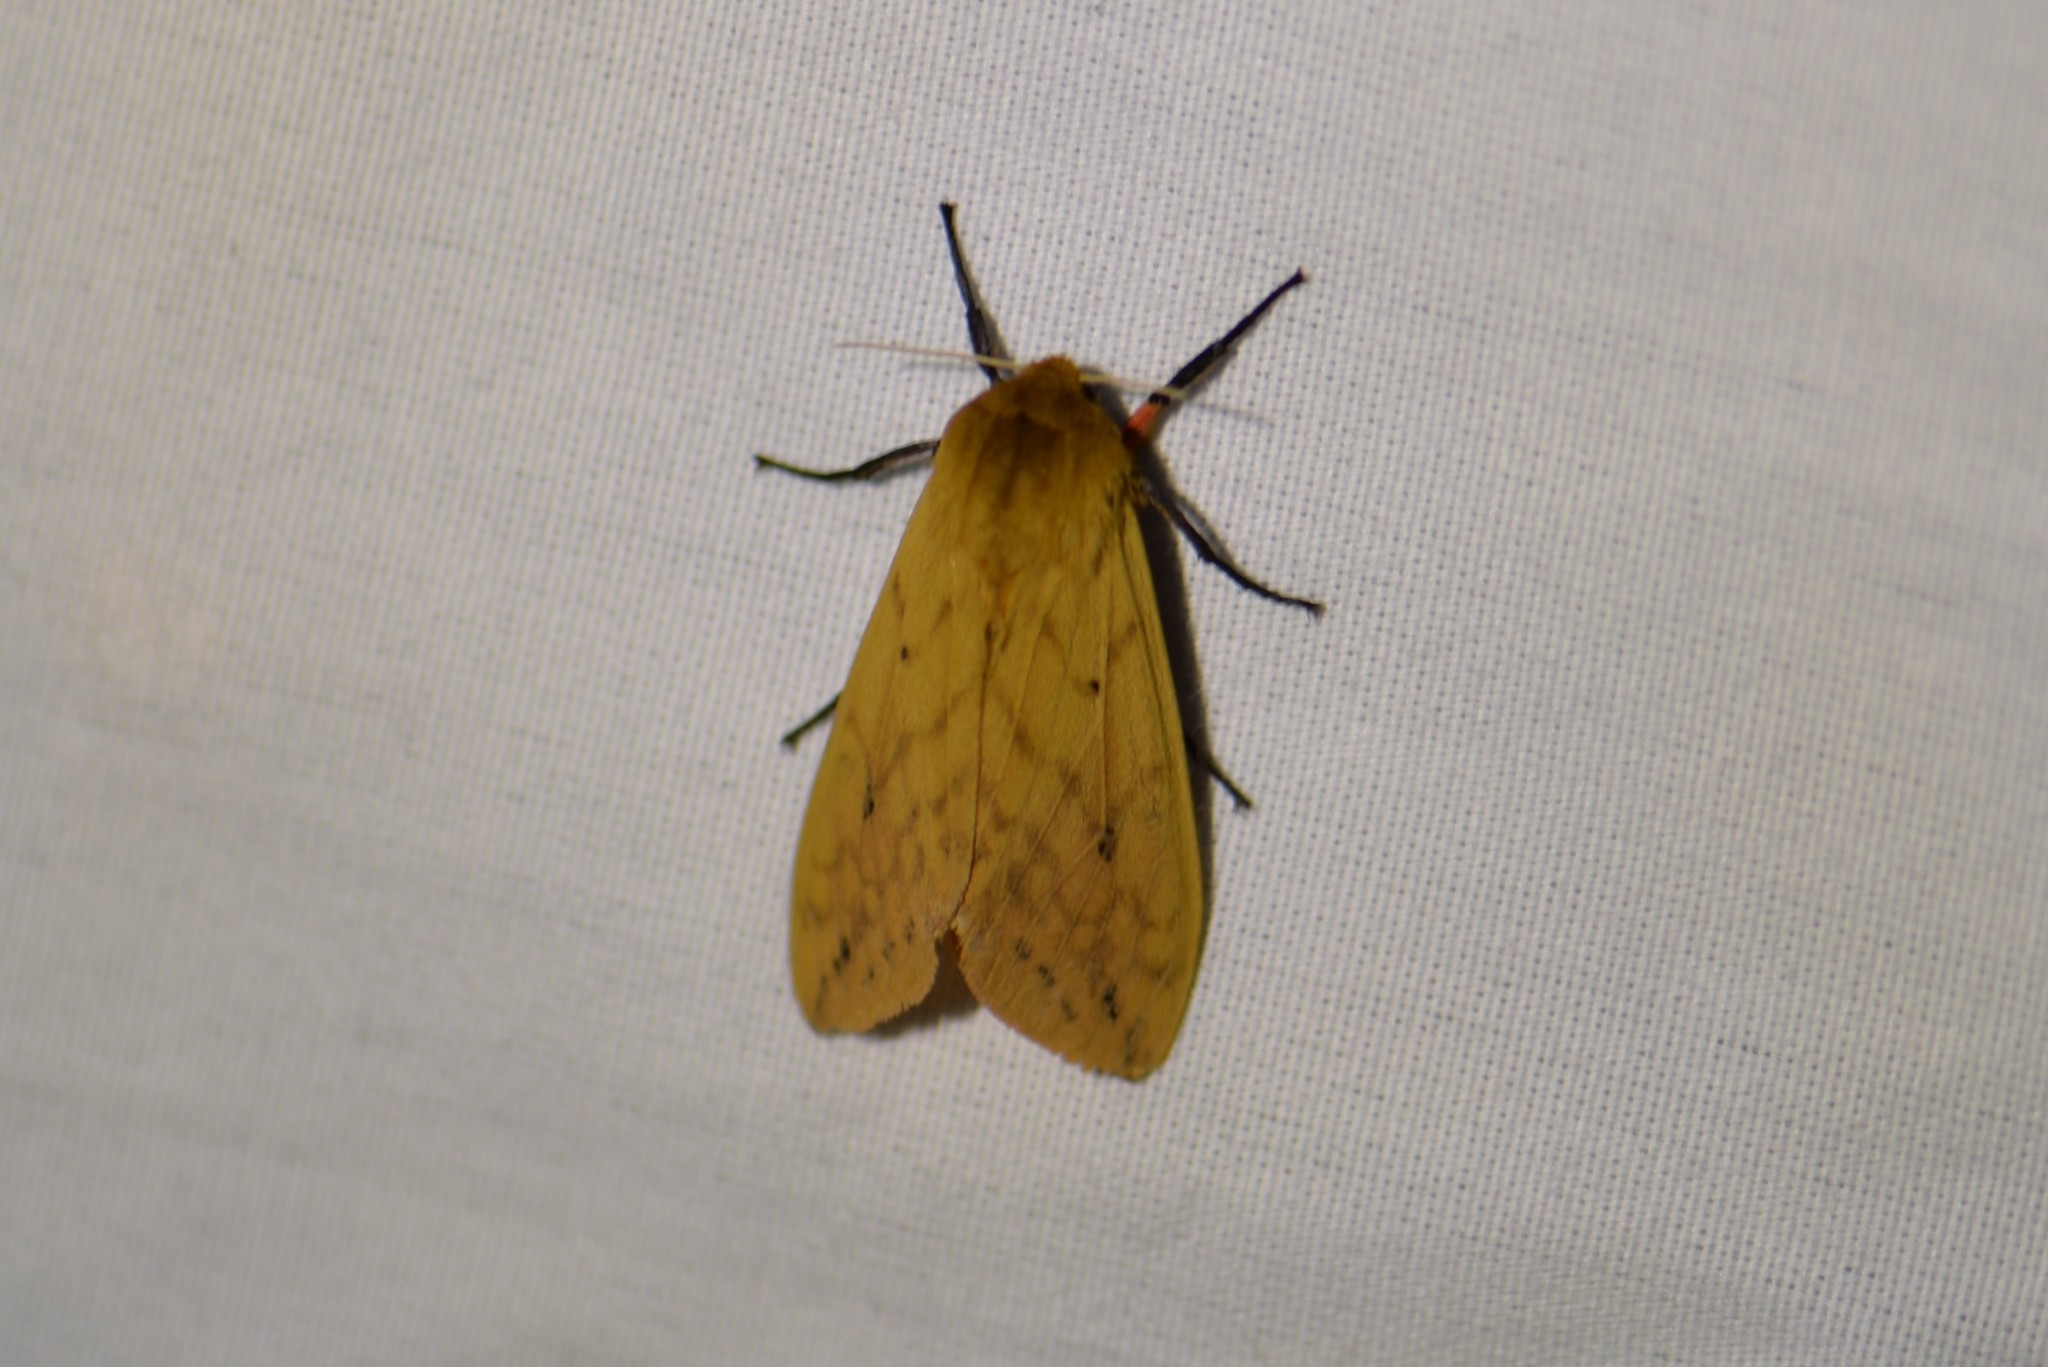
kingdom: Animalia
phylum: Arthropoda
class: Insecta
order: Lepidoptera
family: Erebidae
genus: Pyrrharctia
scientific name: Pyrrharctia isabella
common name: Isabella tiger moth
